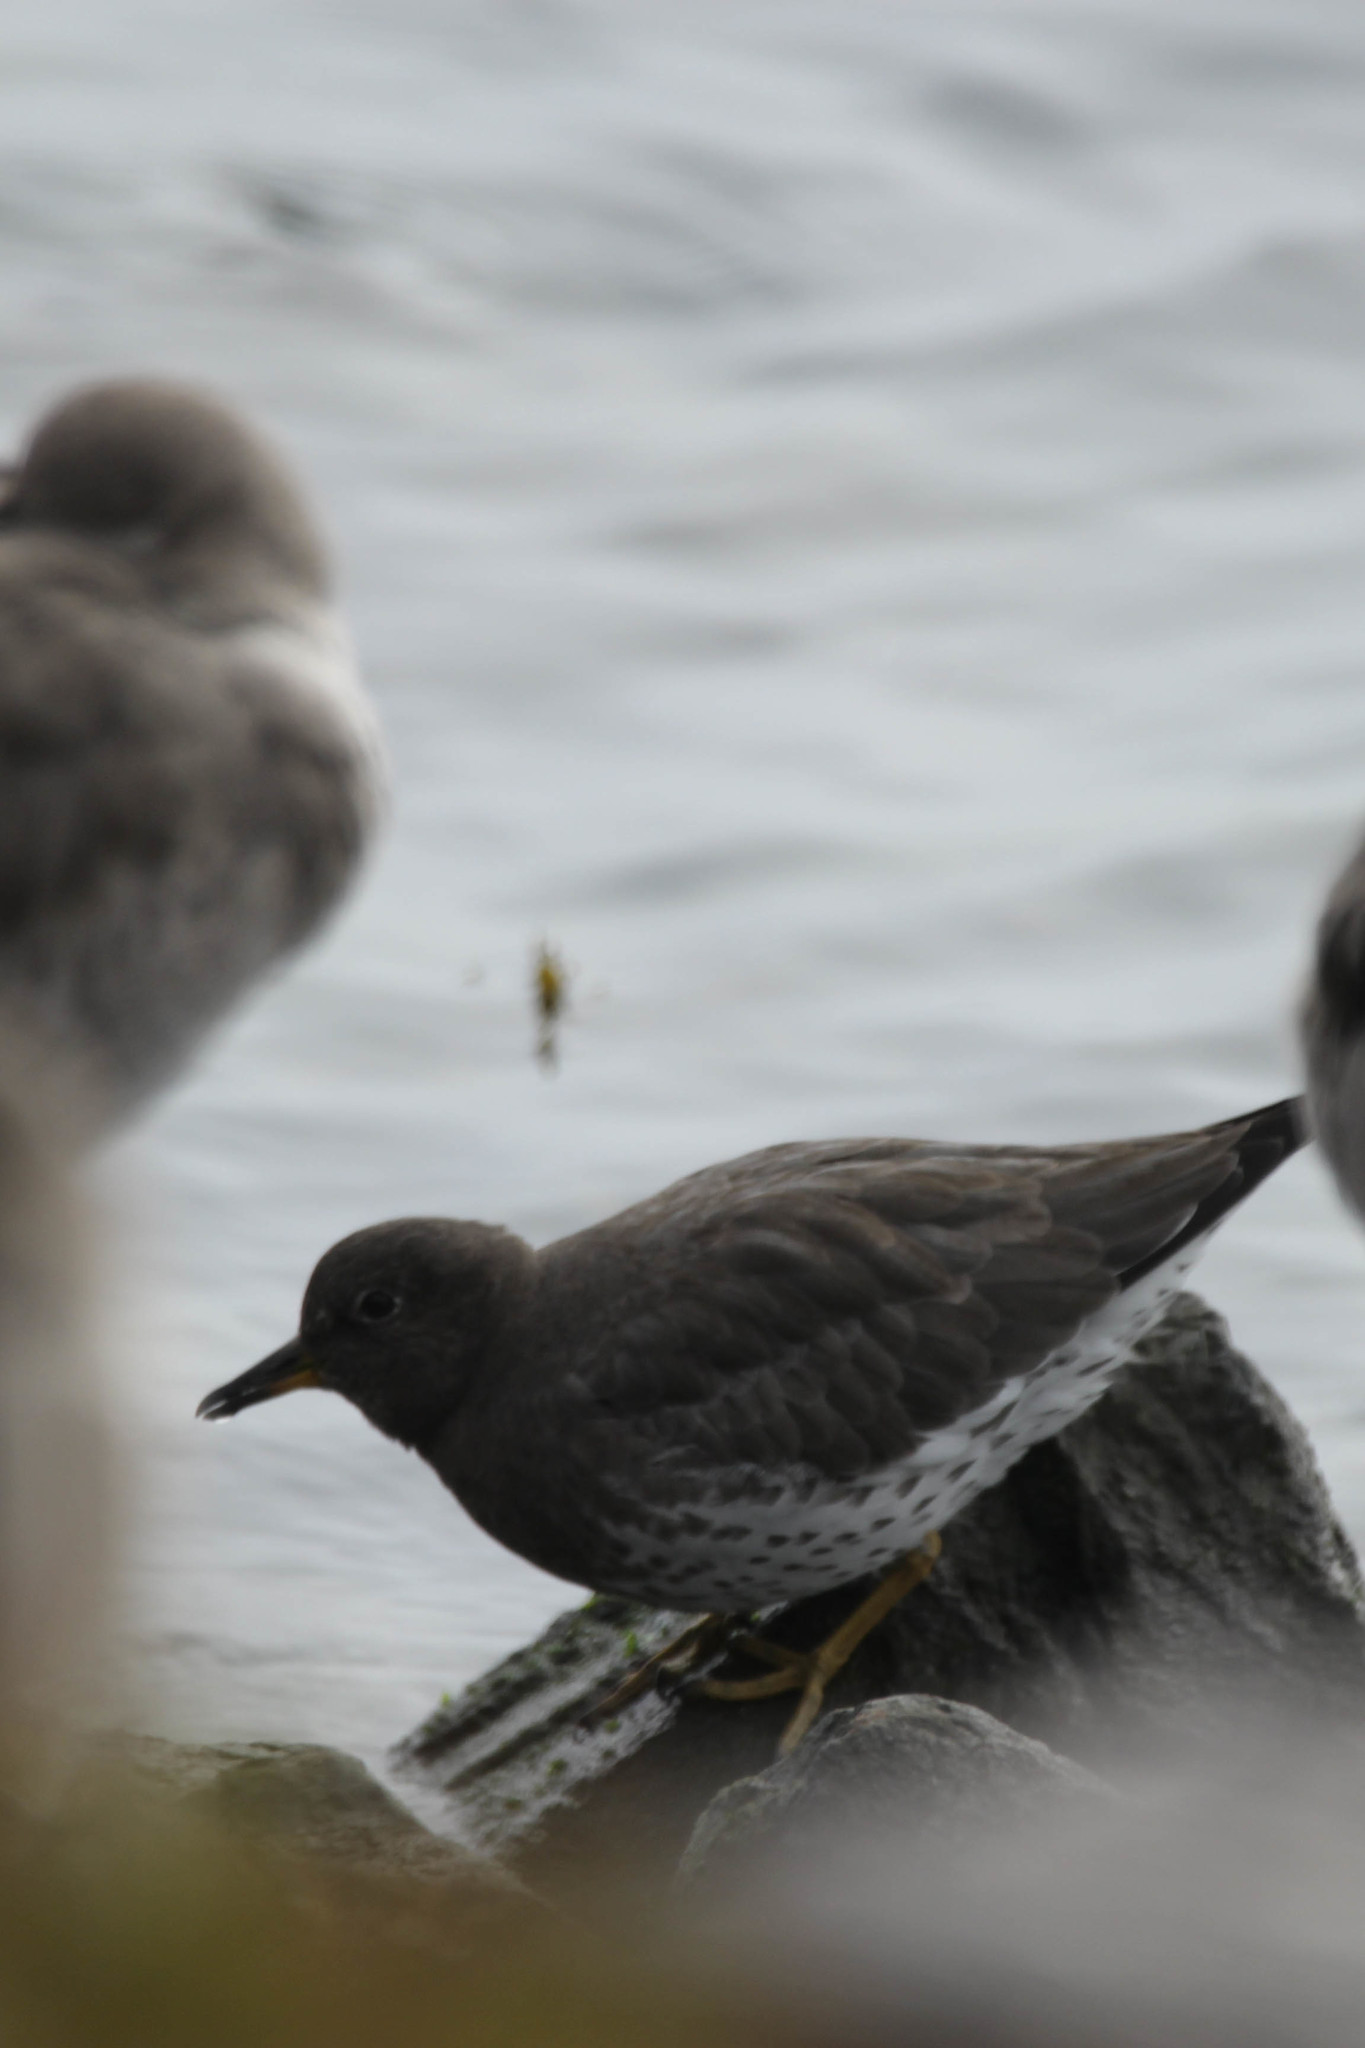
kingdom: Animalia
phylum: Chordata
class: Aves
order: Charadriiformes
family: Scolopacidae
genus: Calidris
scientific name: Calidris virgata
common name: Surfbird
